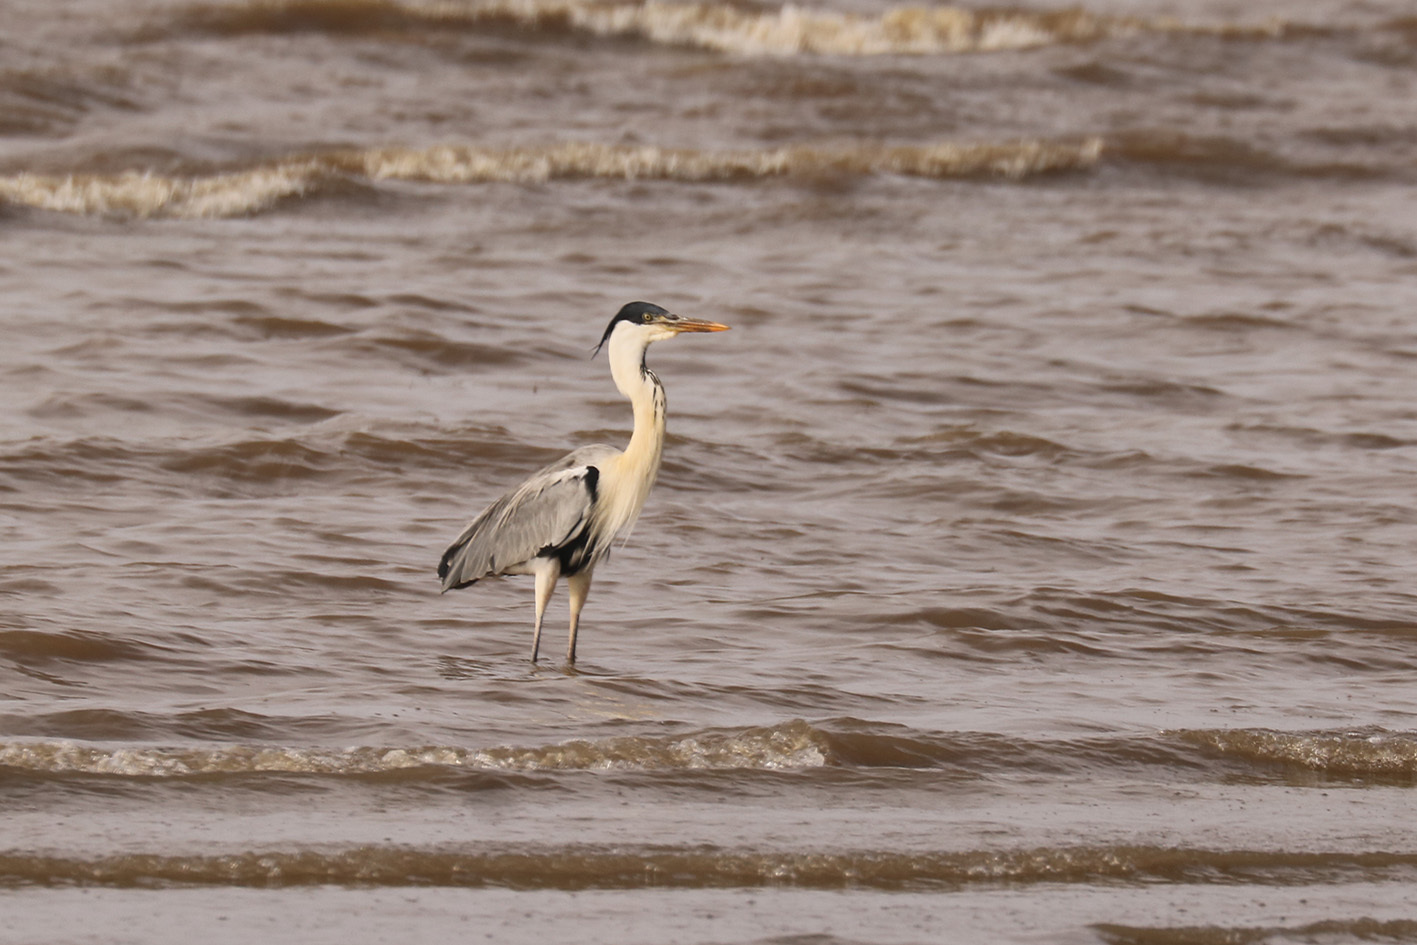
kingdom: Animalia
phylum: Chordata
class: Aves
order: Pelecaniformes
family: Ardeidae
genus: Ardea
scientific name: Ardea cocoi
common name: Cocoi heron
